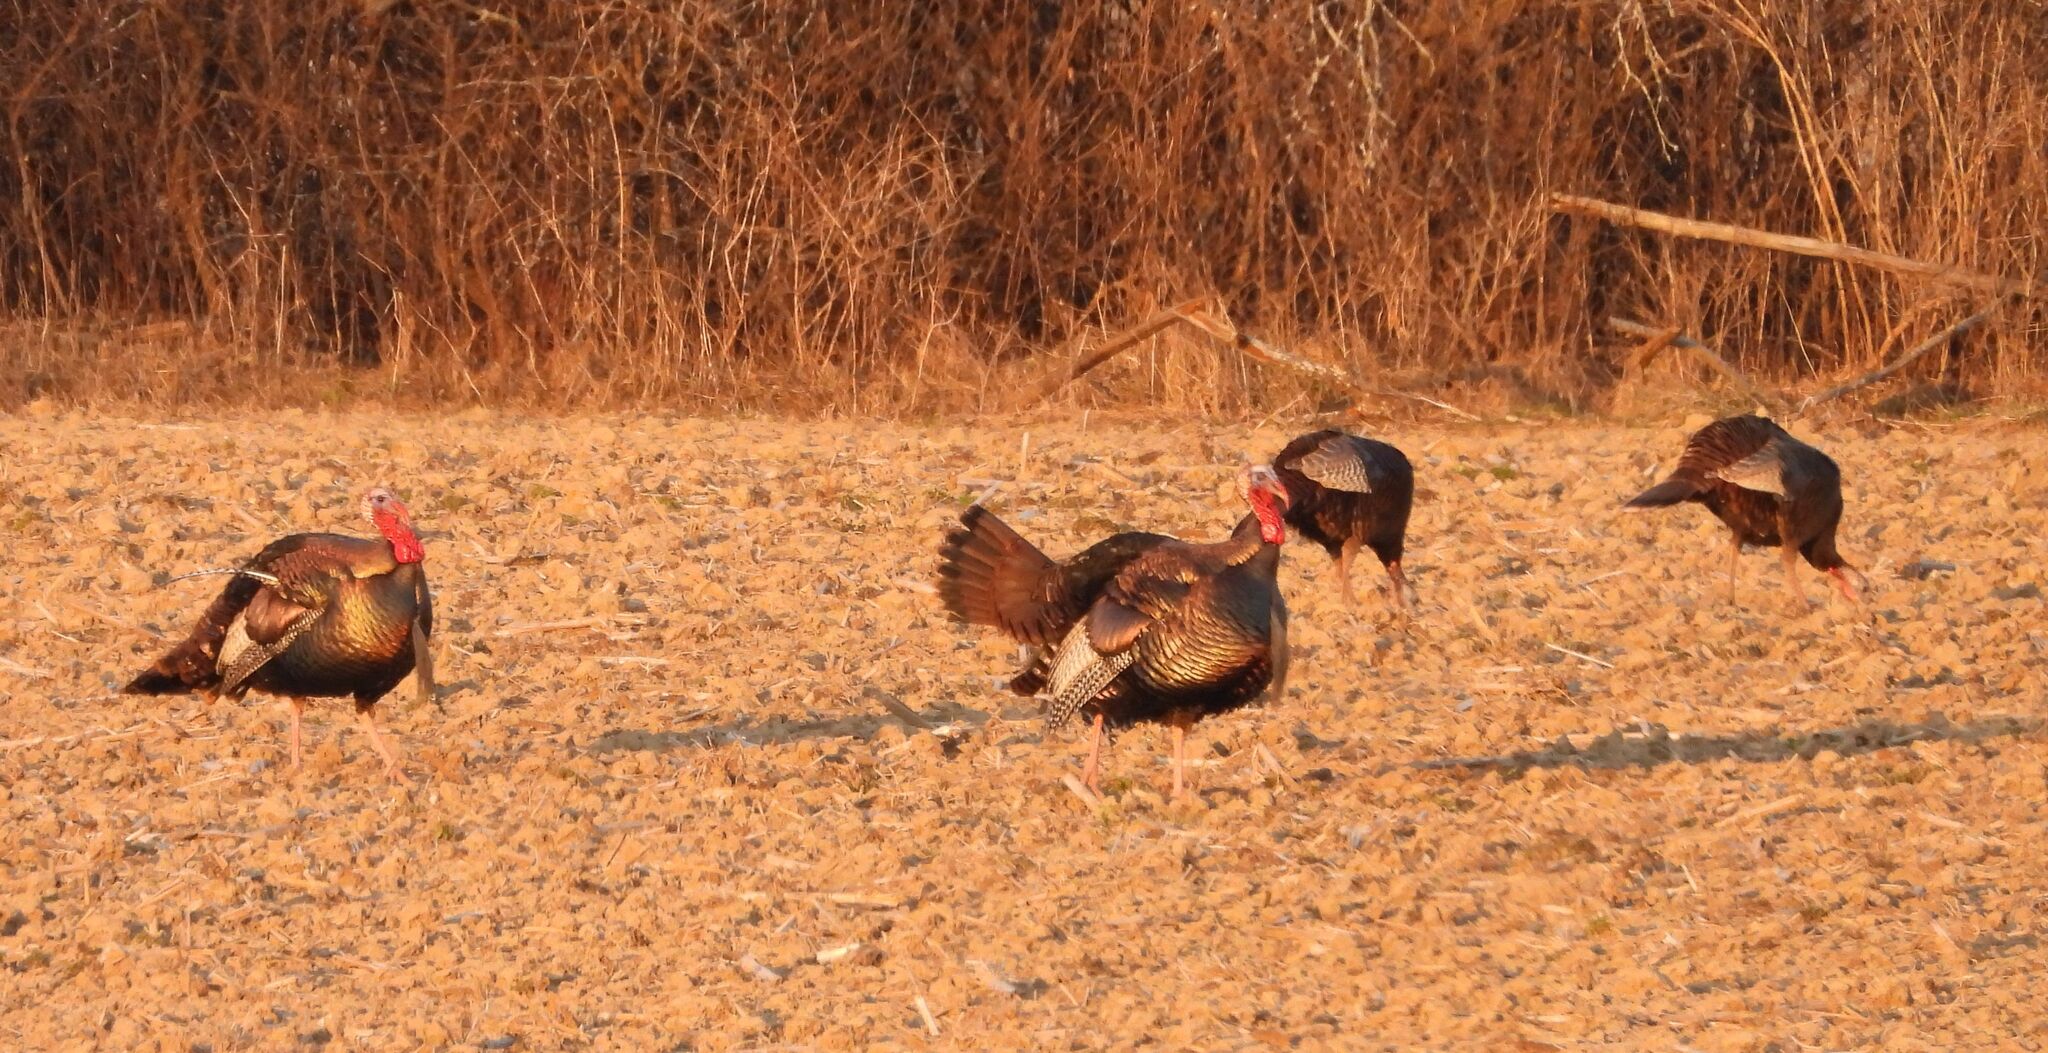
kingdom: Animalia
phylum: Chordata
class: Aves
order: Galliformes
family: Phasianidae
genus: Meleagris
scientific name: Meleagris gallopavo
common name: Wild turkey
